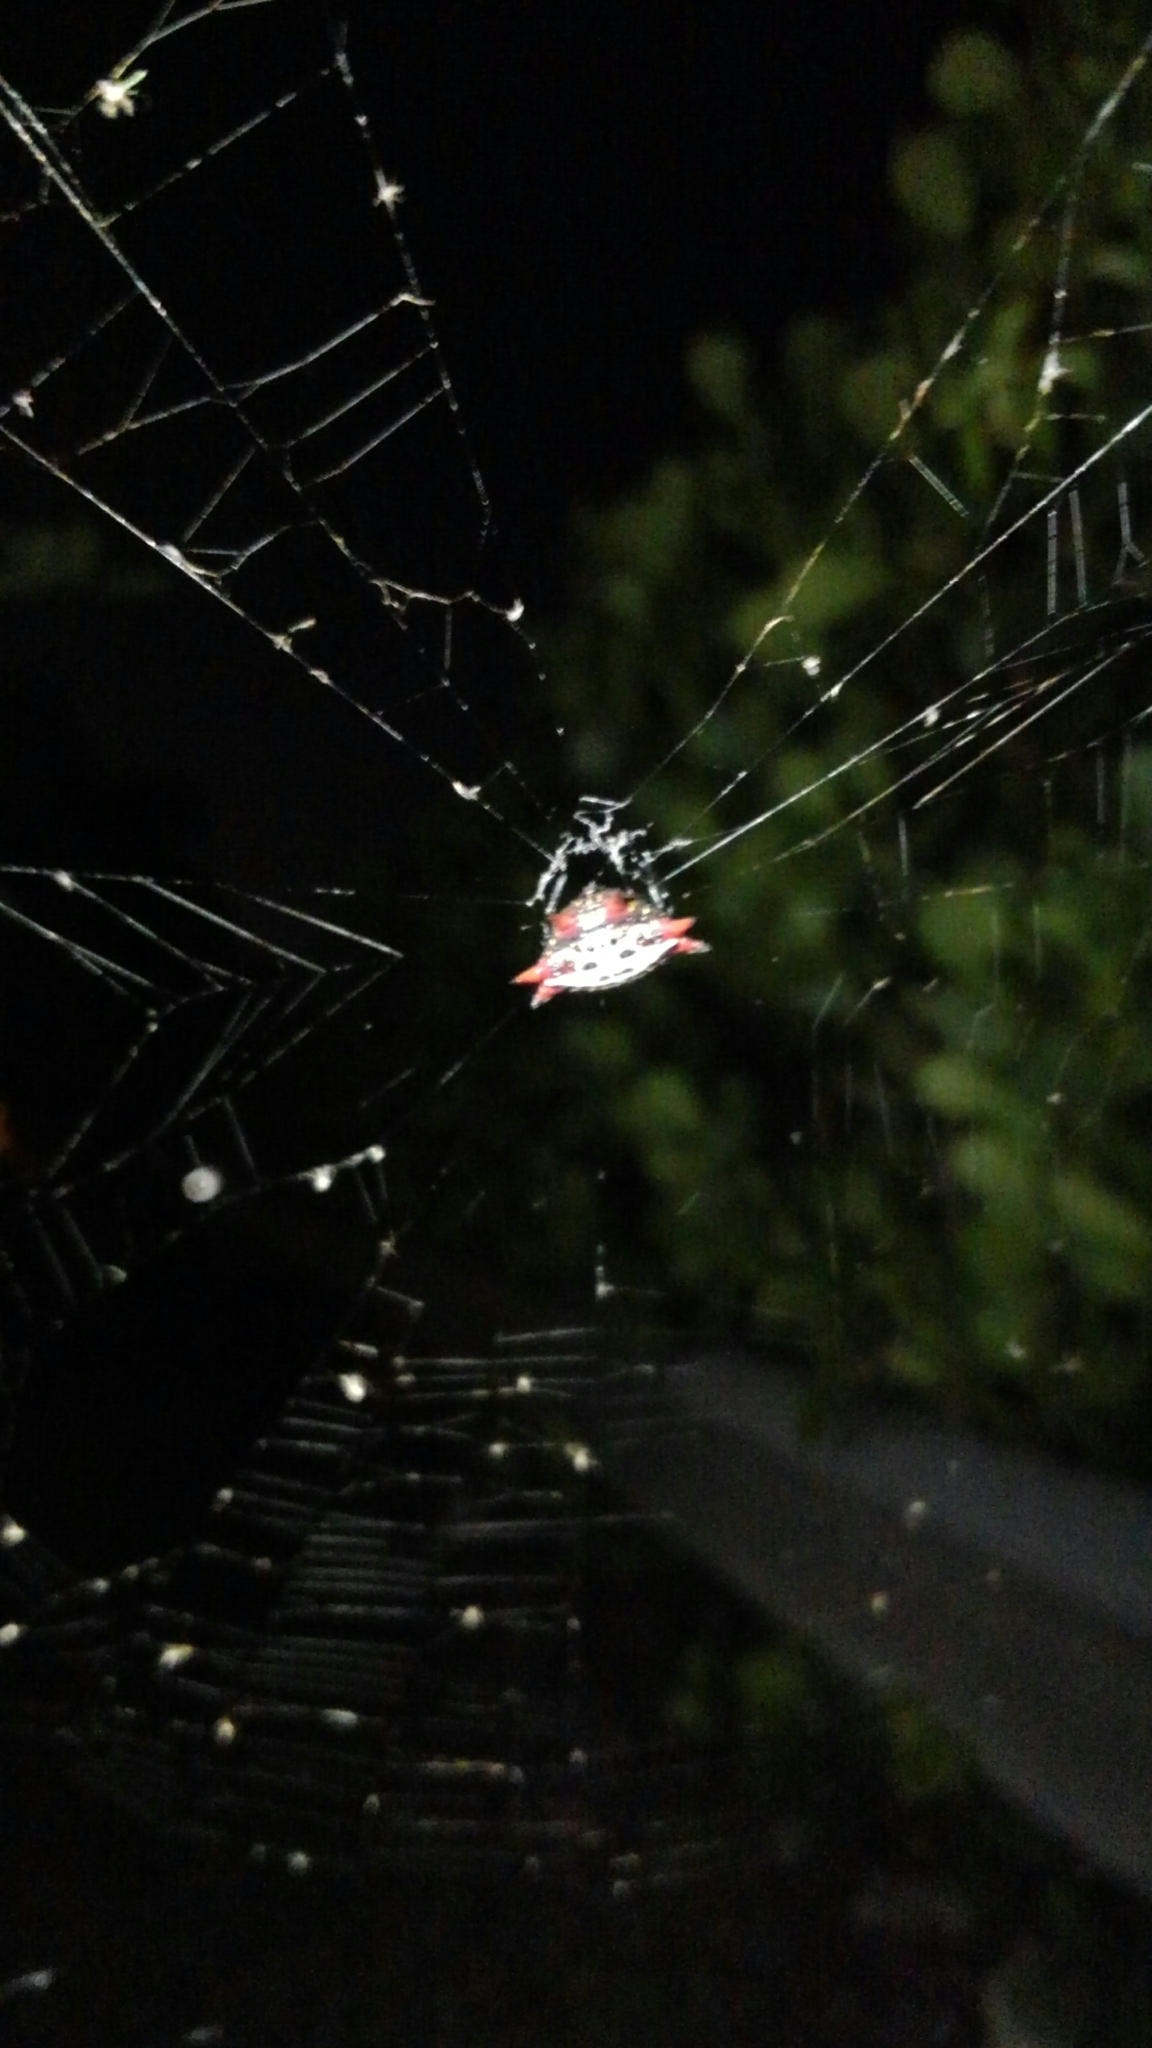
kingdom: Animalia
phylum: Arthropoda
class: Arachnida
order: Araneae
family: Araneidae
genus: Gasteracantha
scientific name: Gasteracantha cancriformis
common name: Orb weavers
